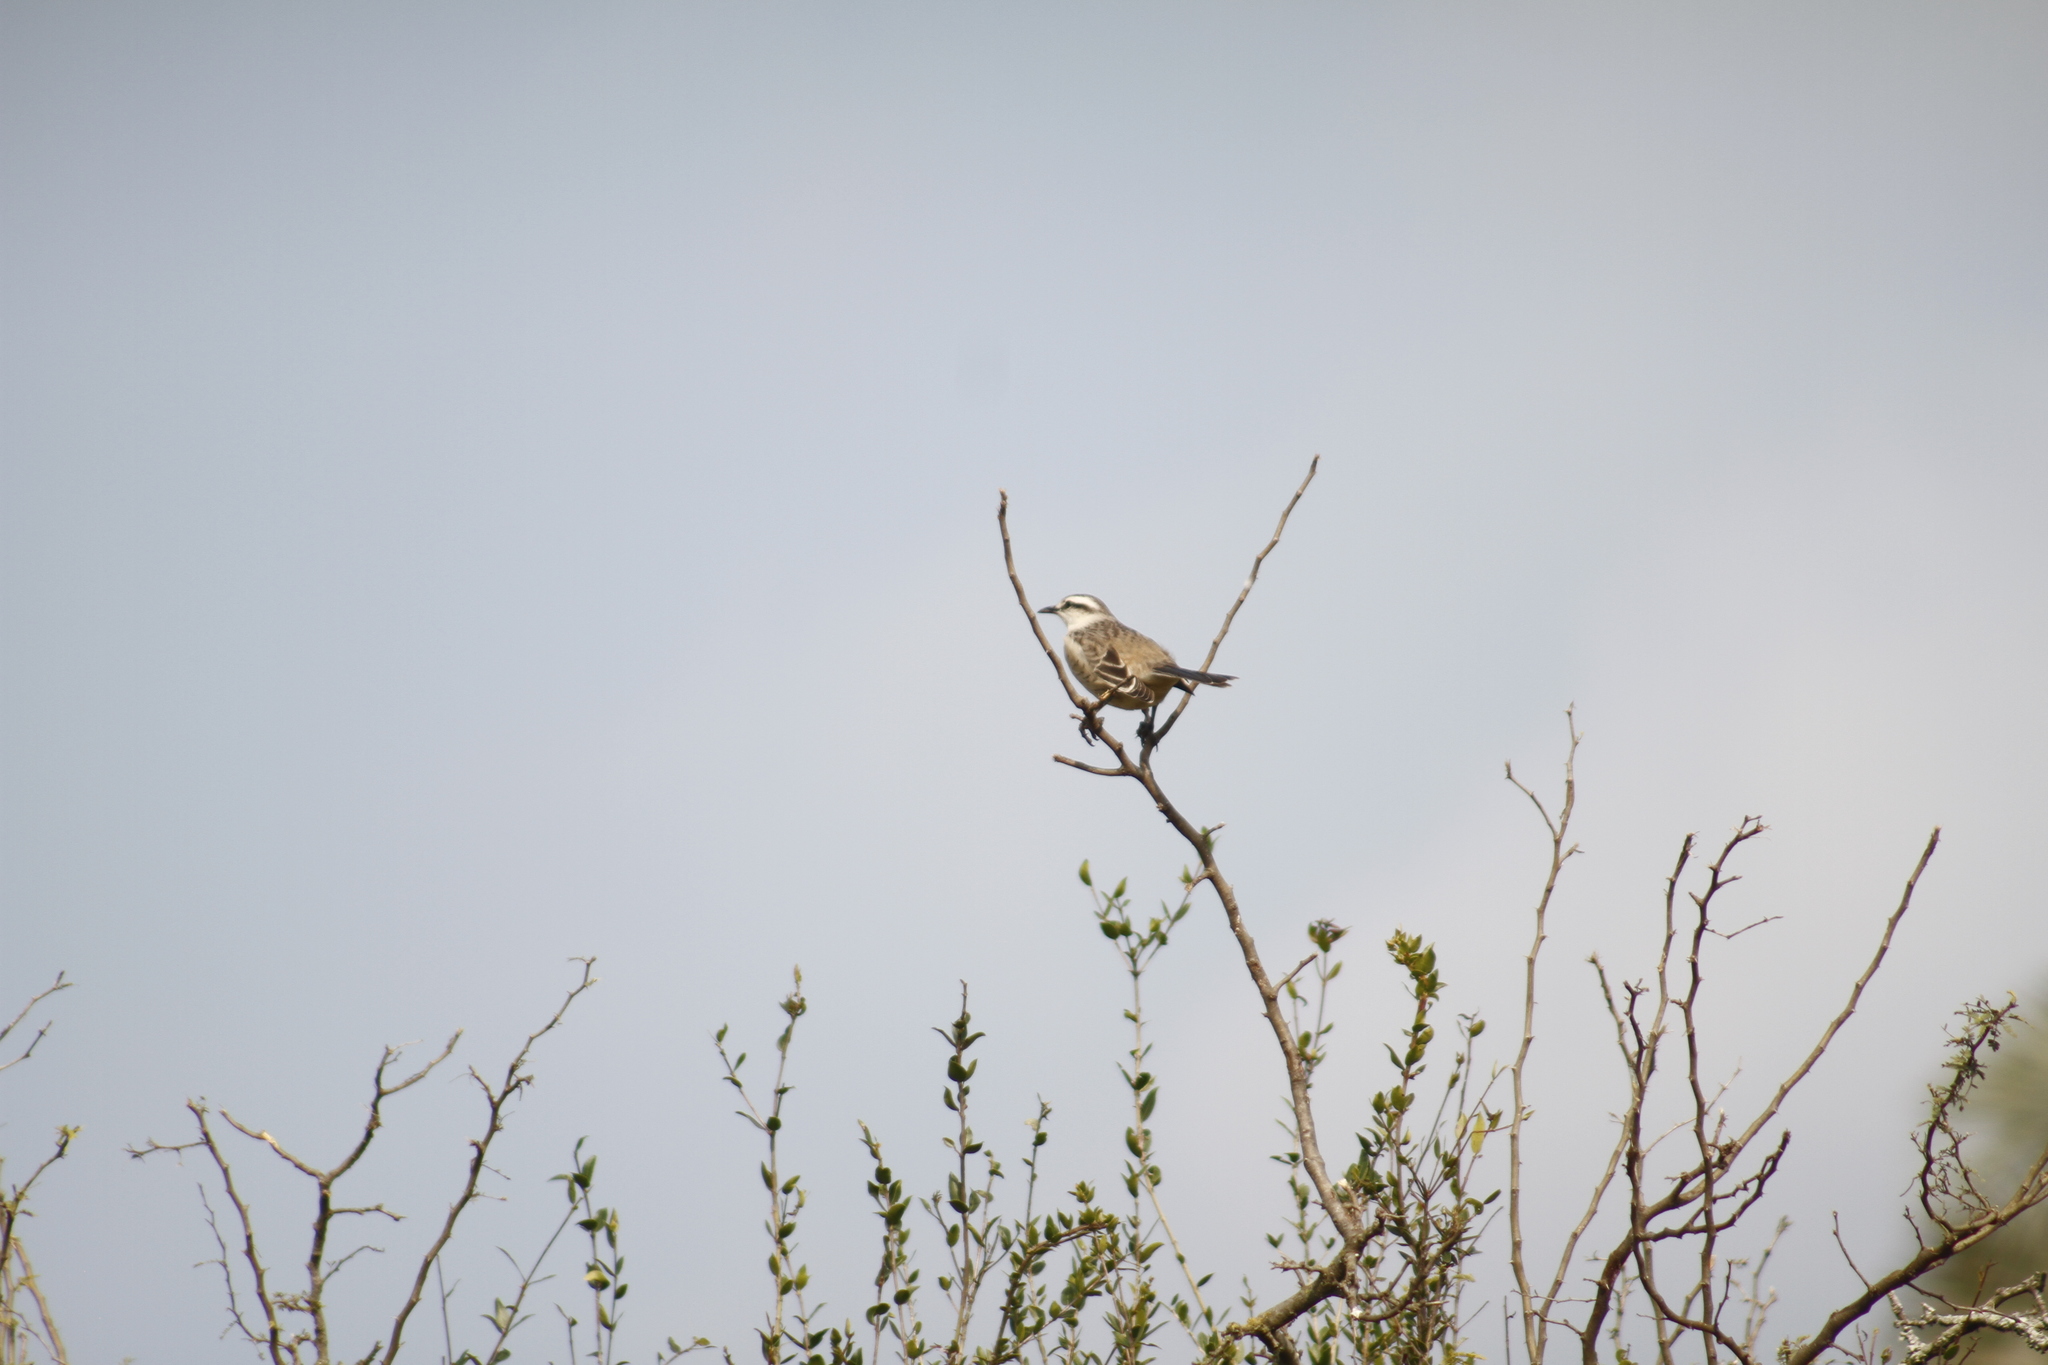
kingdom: Animalia
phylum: Chordata
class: Aves
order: Passeriformes
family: Mimidae
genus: Mimus
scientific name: Mimus saturninus
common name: Chalk-browed mockingbird
